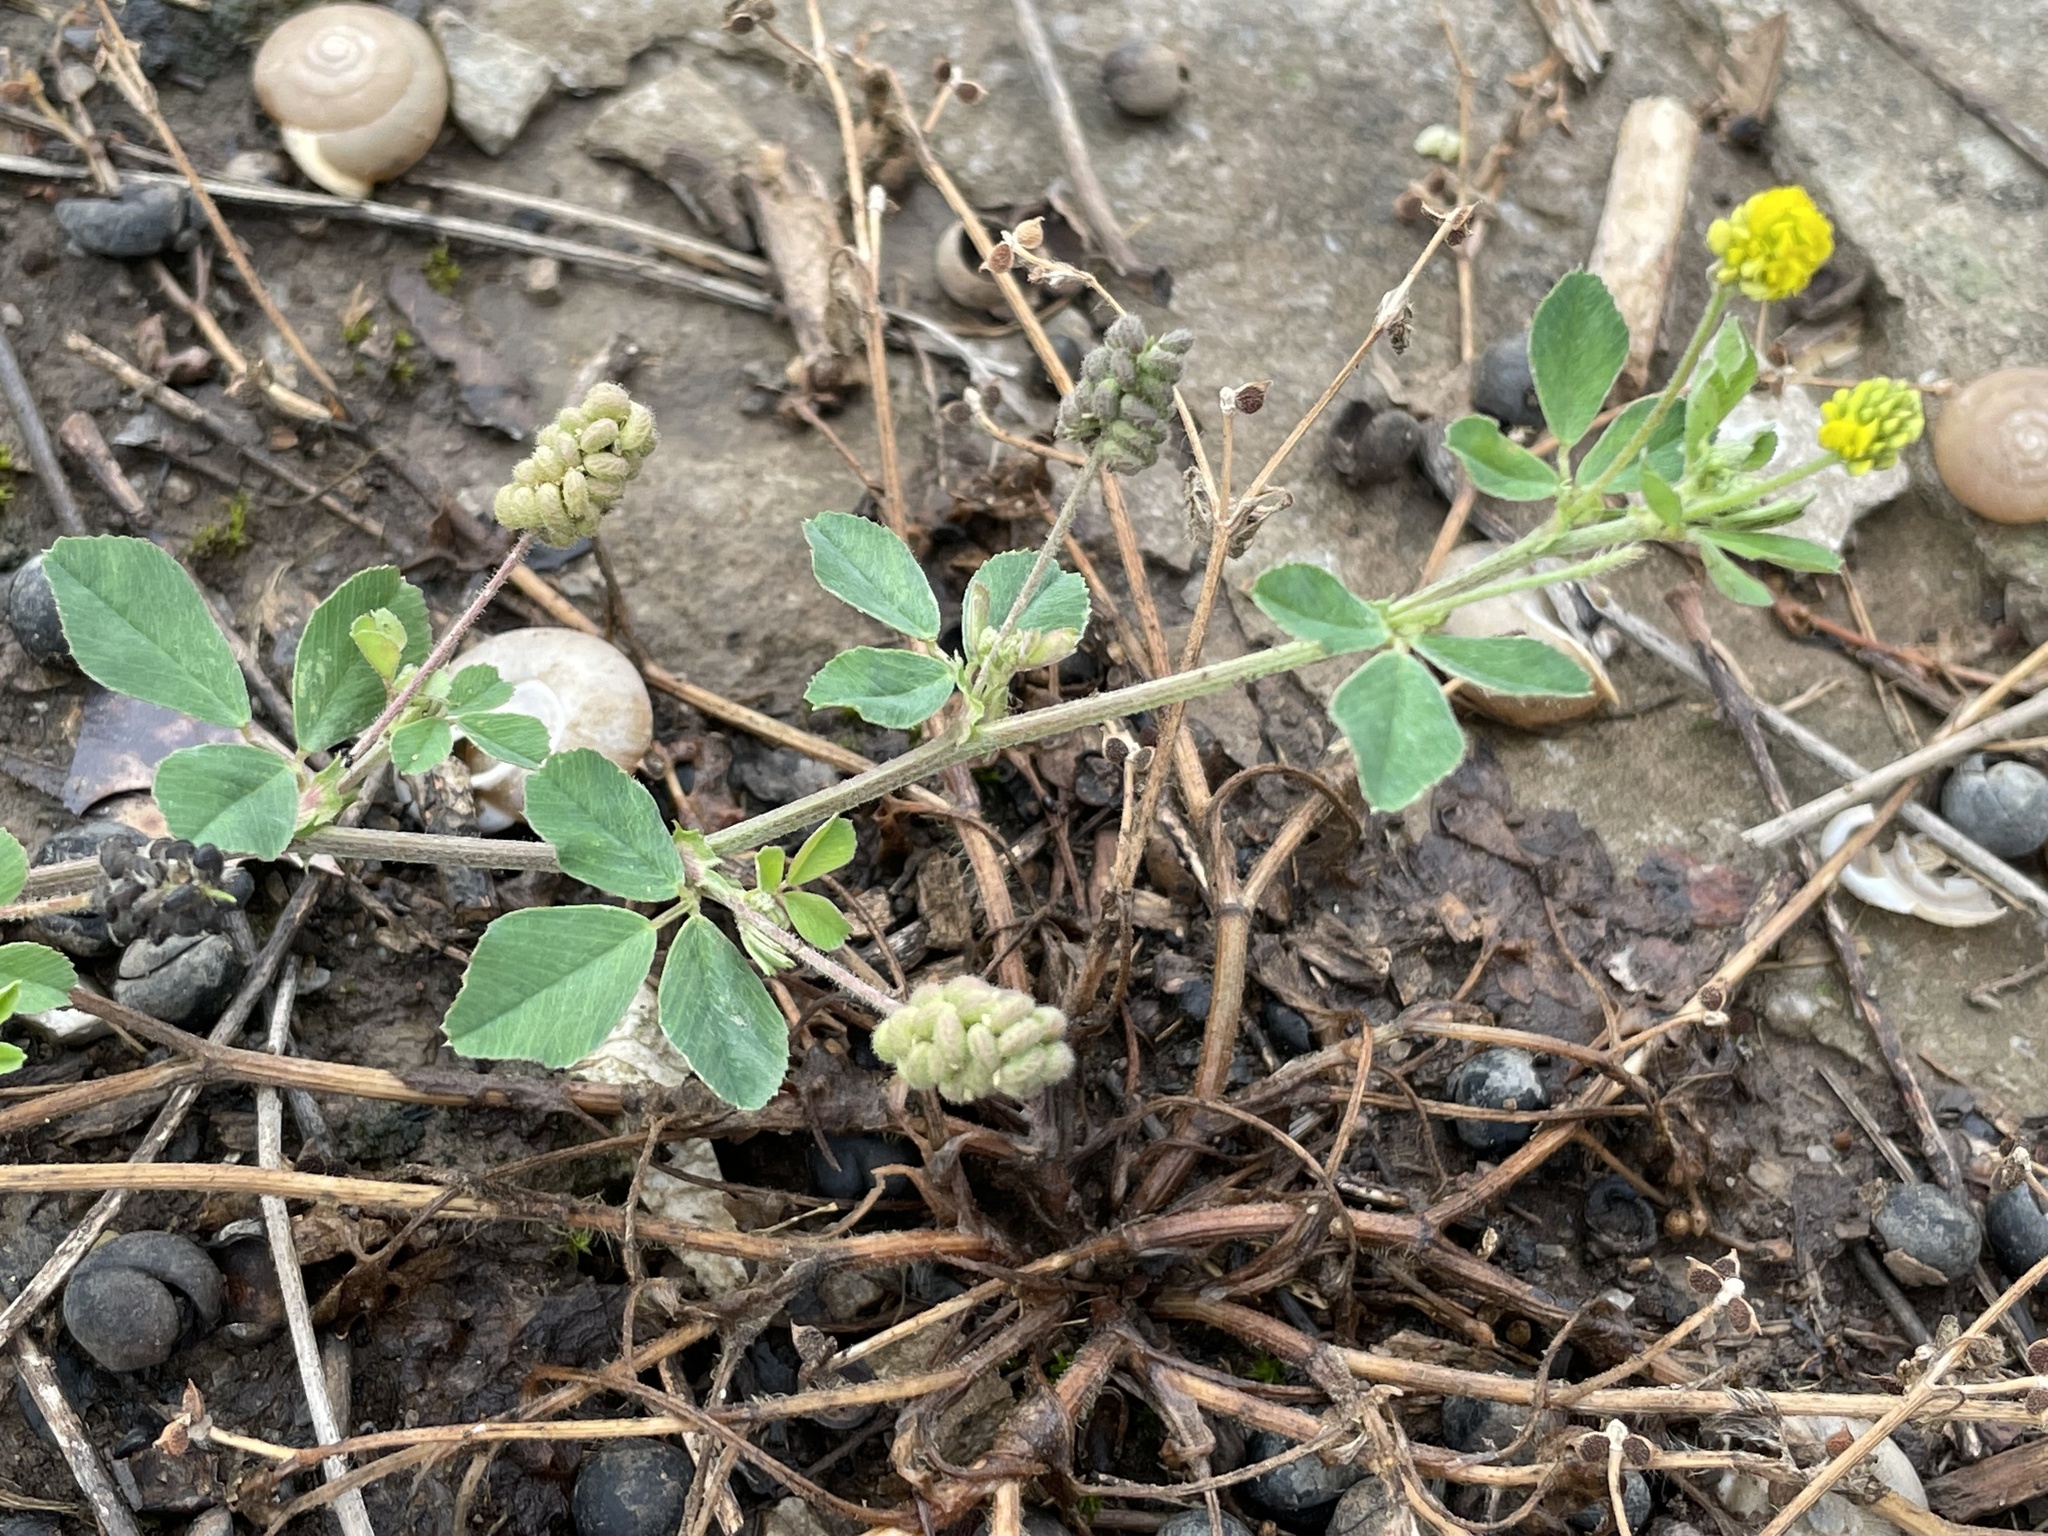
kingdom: Plantae
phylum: Tracheophyta
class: Magnoliopsida
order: Fabales
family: Fabaceae
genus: Medicago
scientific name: Medicago lupulina
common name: Black medick
